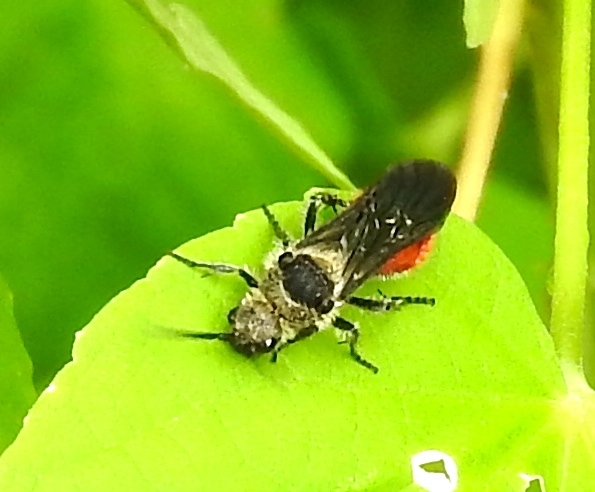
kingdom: Animalia
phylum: Arthropoda
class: Insecta
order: Hymenoptera
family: Mutillidae
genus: Dasymutilla
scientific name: Dasymutilla
